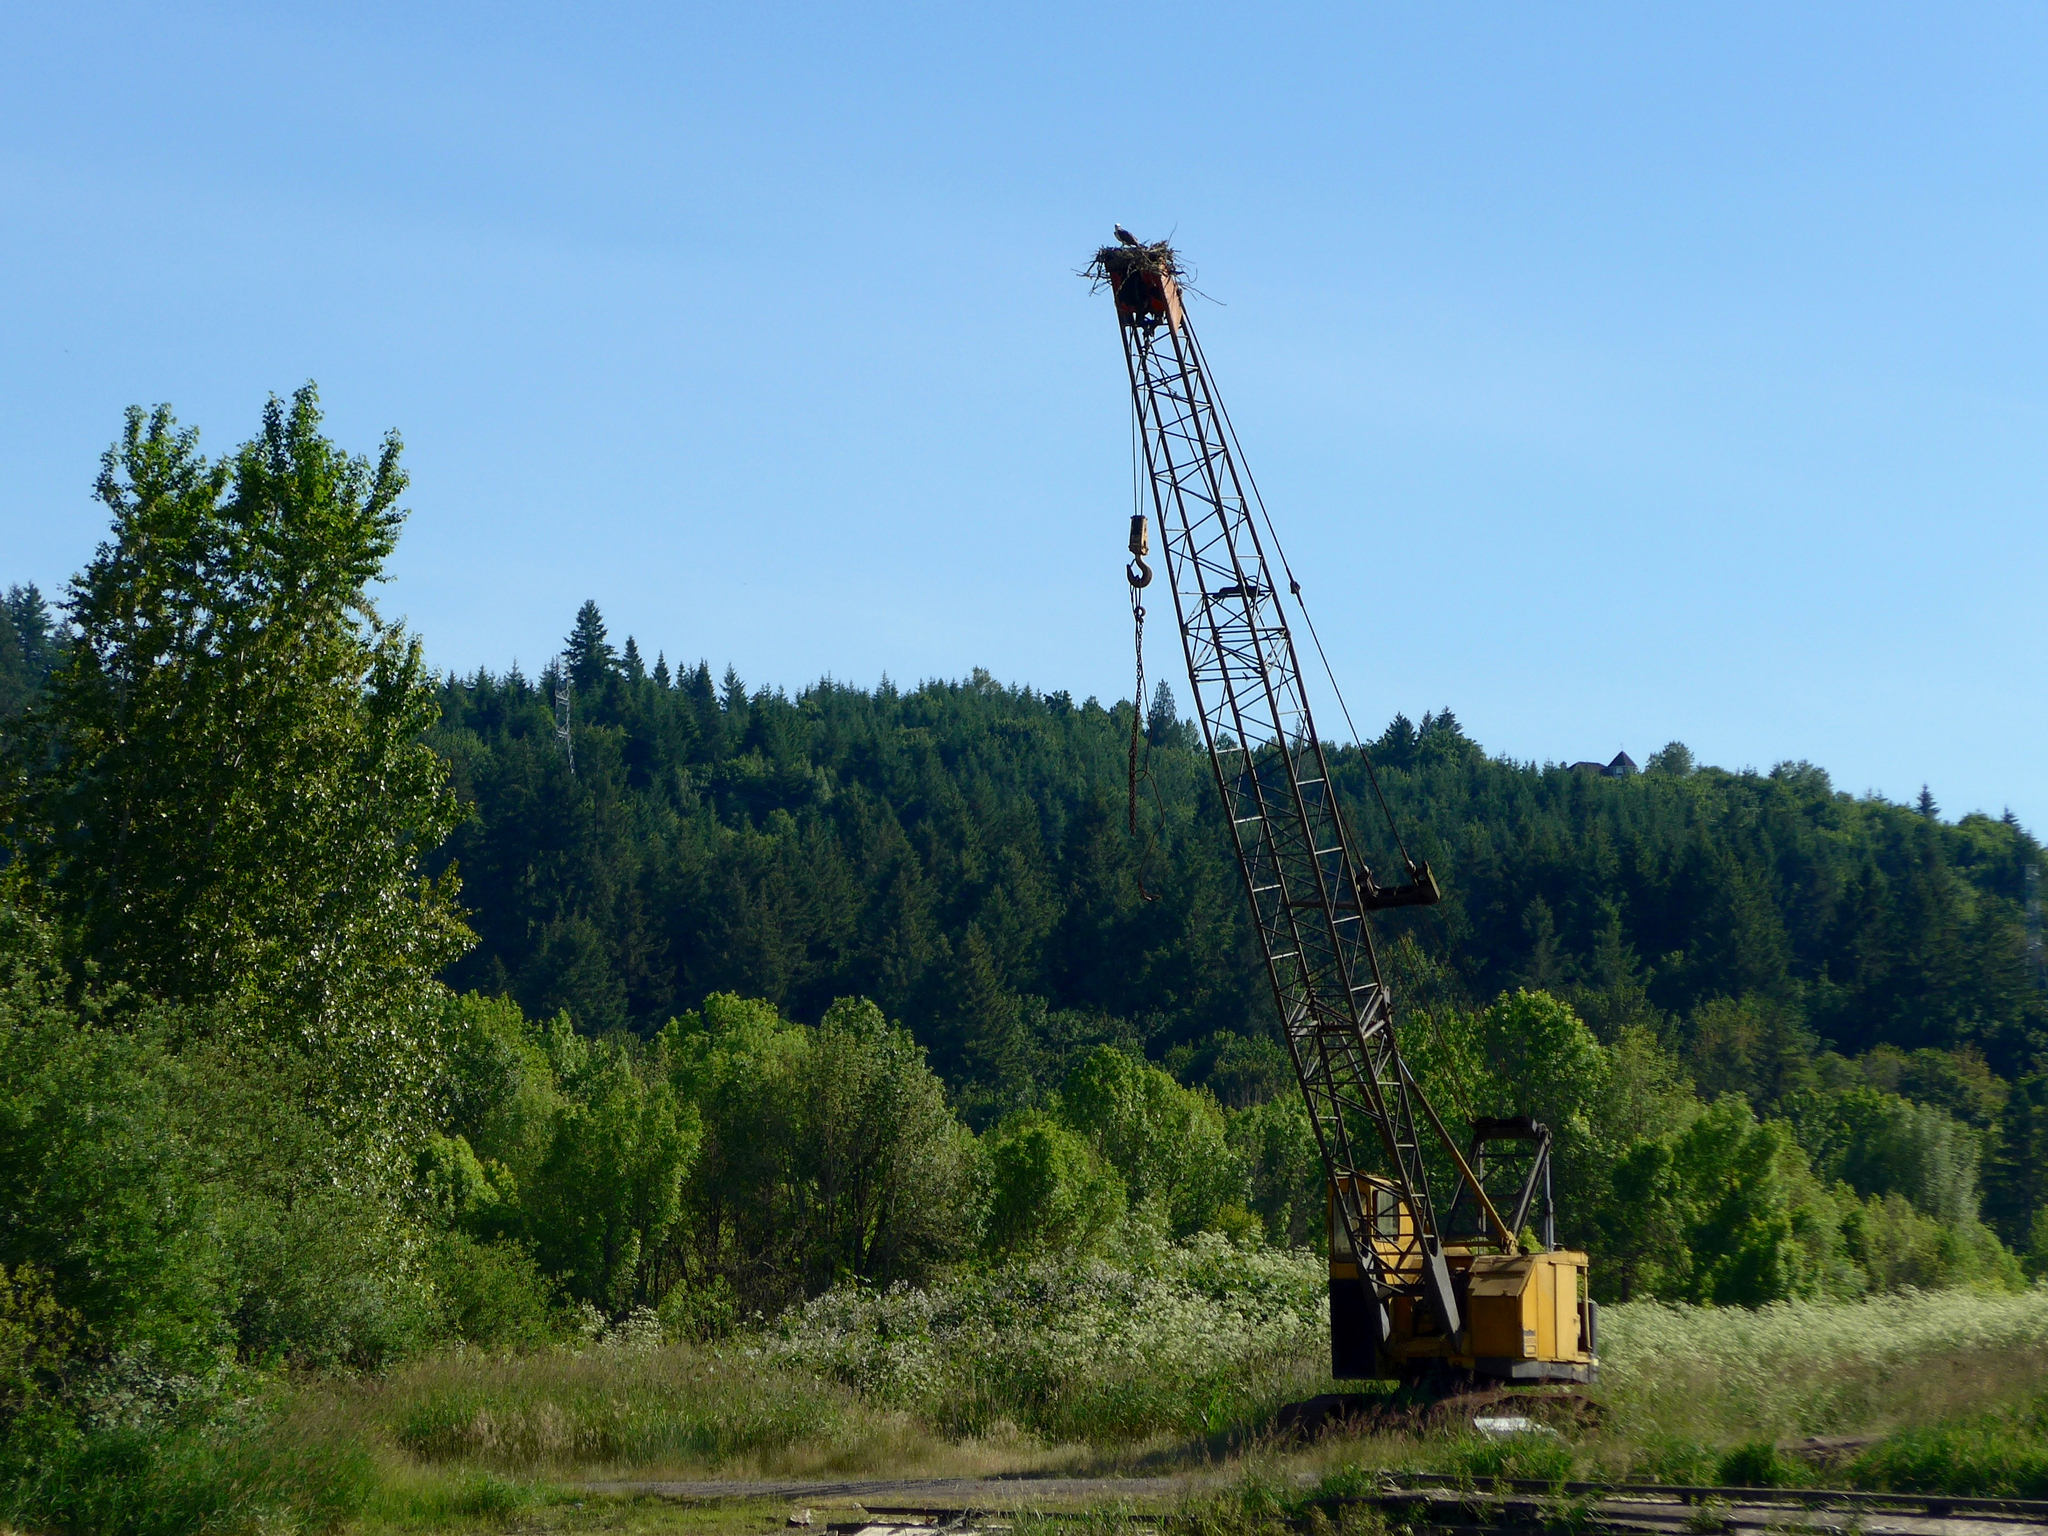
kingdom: Animalia
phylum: Chordata
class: Aves
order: Accipitriformes
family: Pandionidae
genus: Pandion
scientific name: Pandion haliaetus
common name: Osprey
